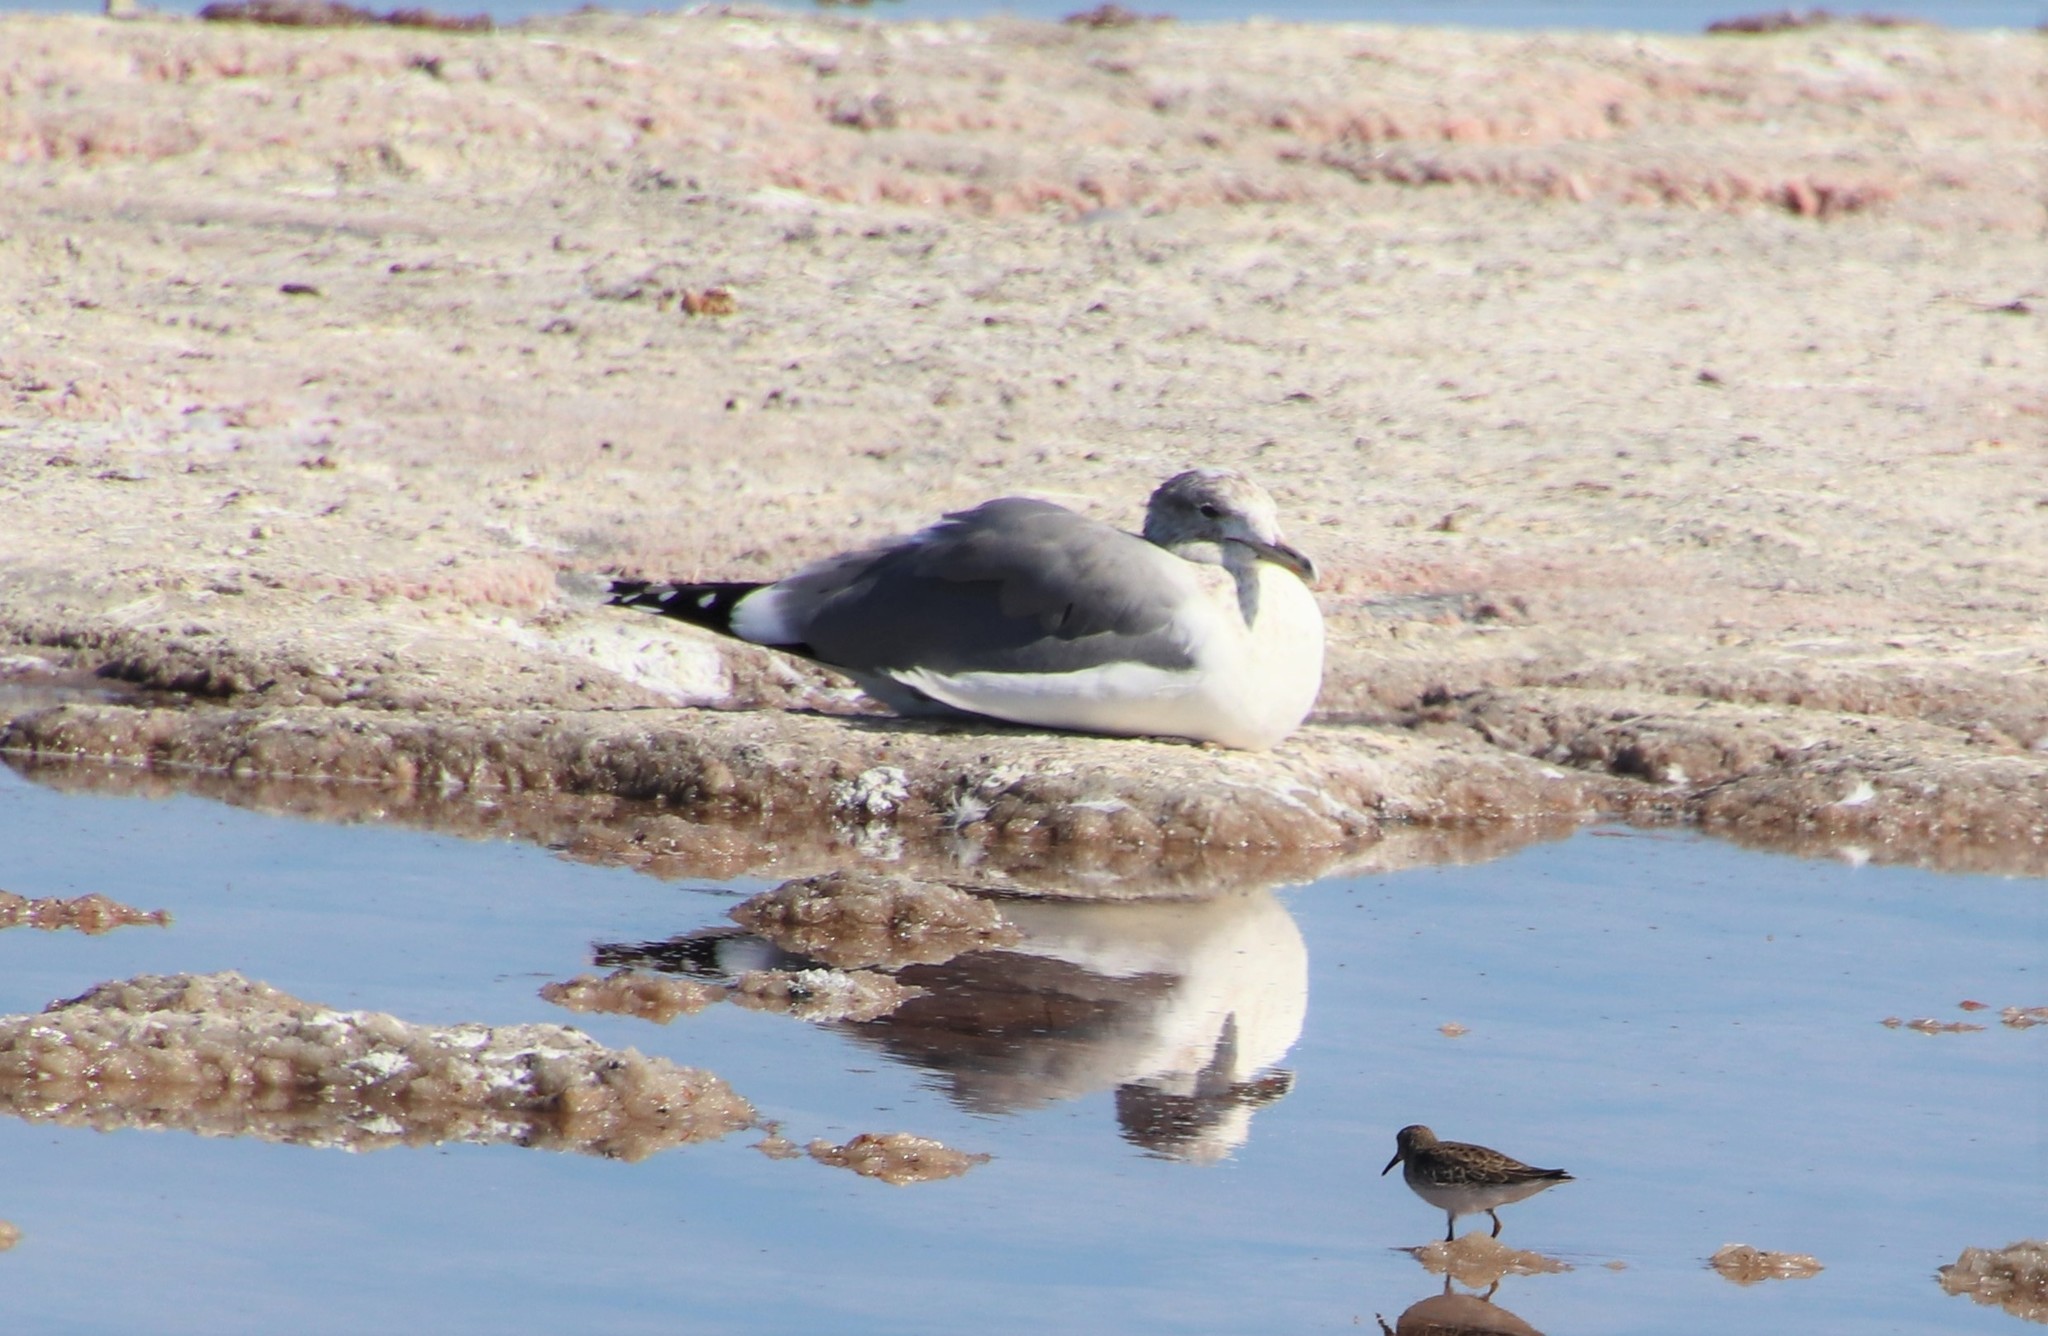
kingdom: Animalia
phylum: Chordata
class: Aves
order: Charadriiformes
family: Laridae
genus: Larus
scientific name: Larus californicus
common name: California gull
